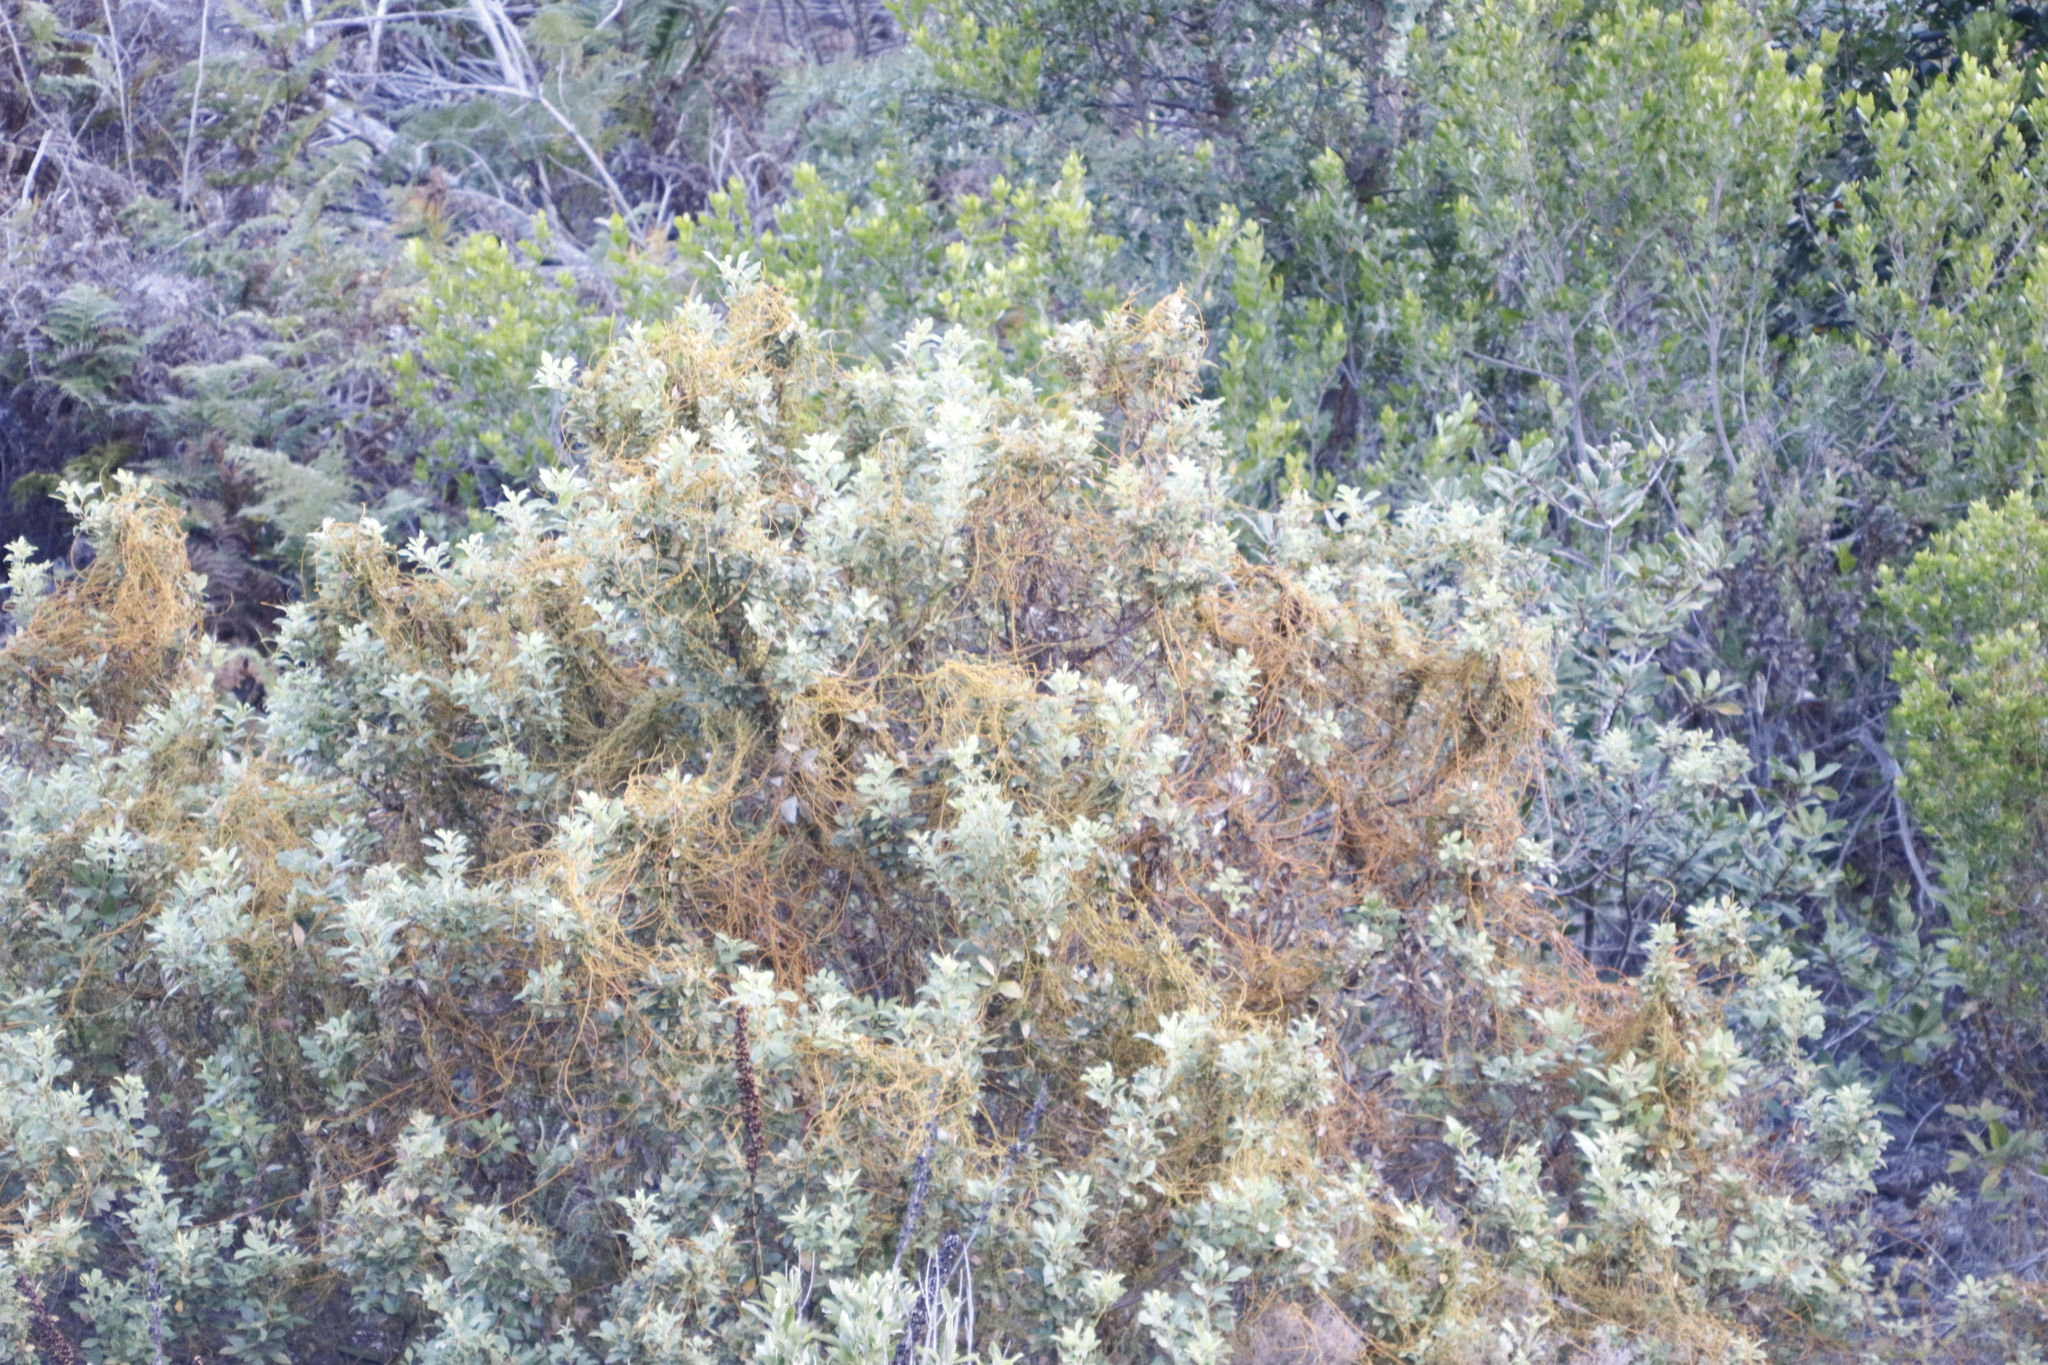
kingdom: Plantae
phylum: Tracheophyta
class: Magnoliopsida
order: Laurales
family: Lauraceae
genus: Cassytha
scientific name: Cassytha ciliolata
